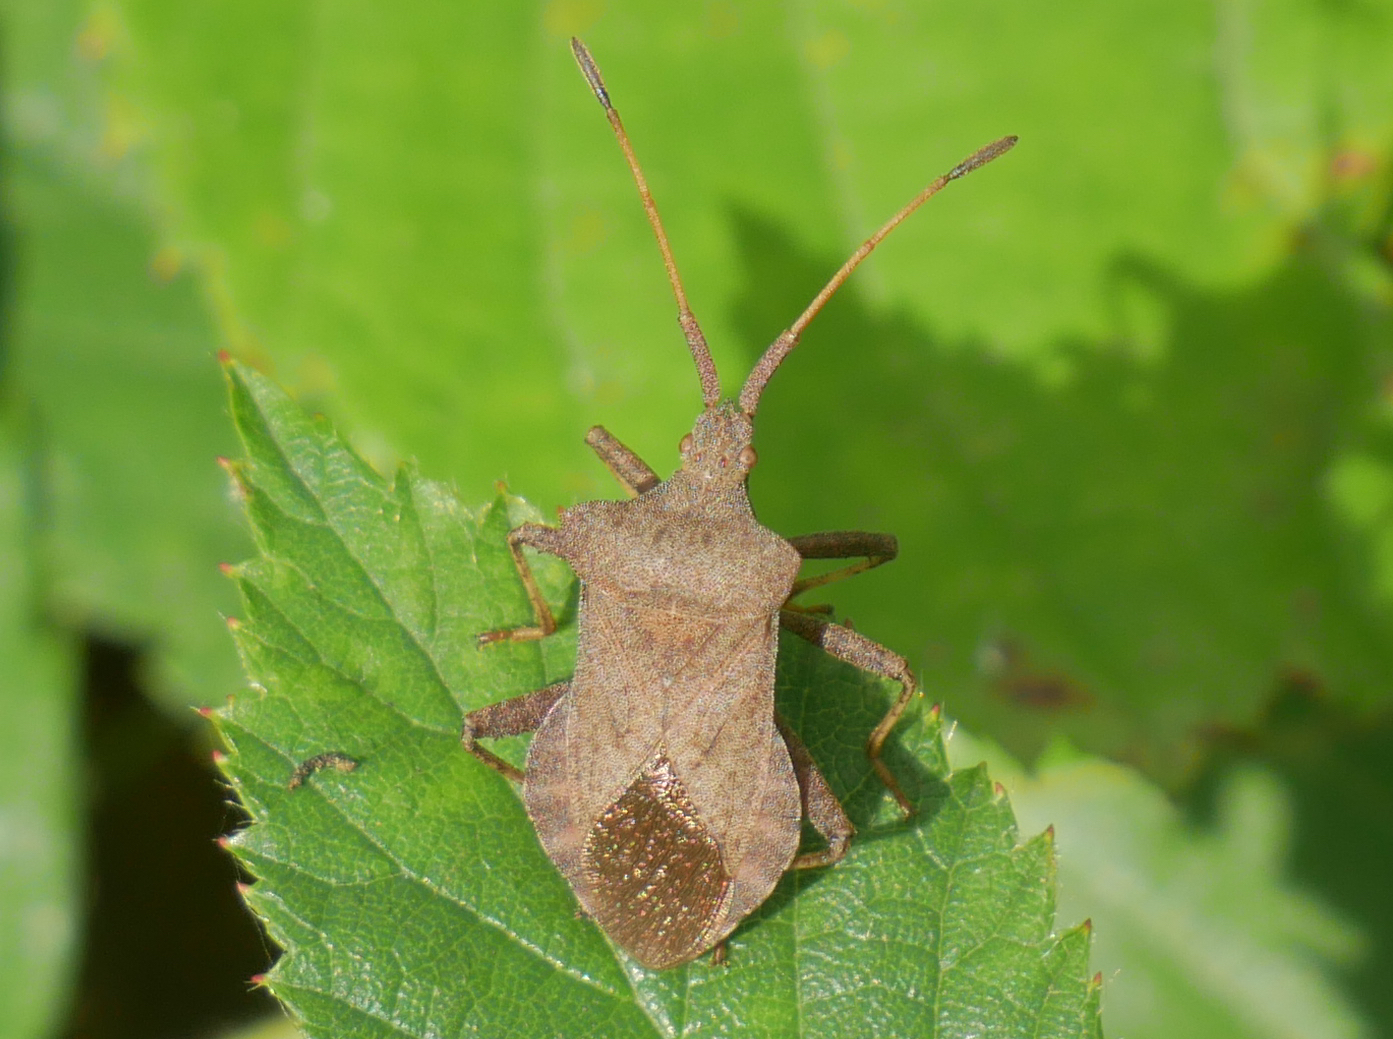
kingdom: Animalia
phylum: Arthropoda
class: Insecta
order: Hemiptera
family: Coreidae
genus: Coreus
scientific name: Coreus marginatus
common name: Dock bug
